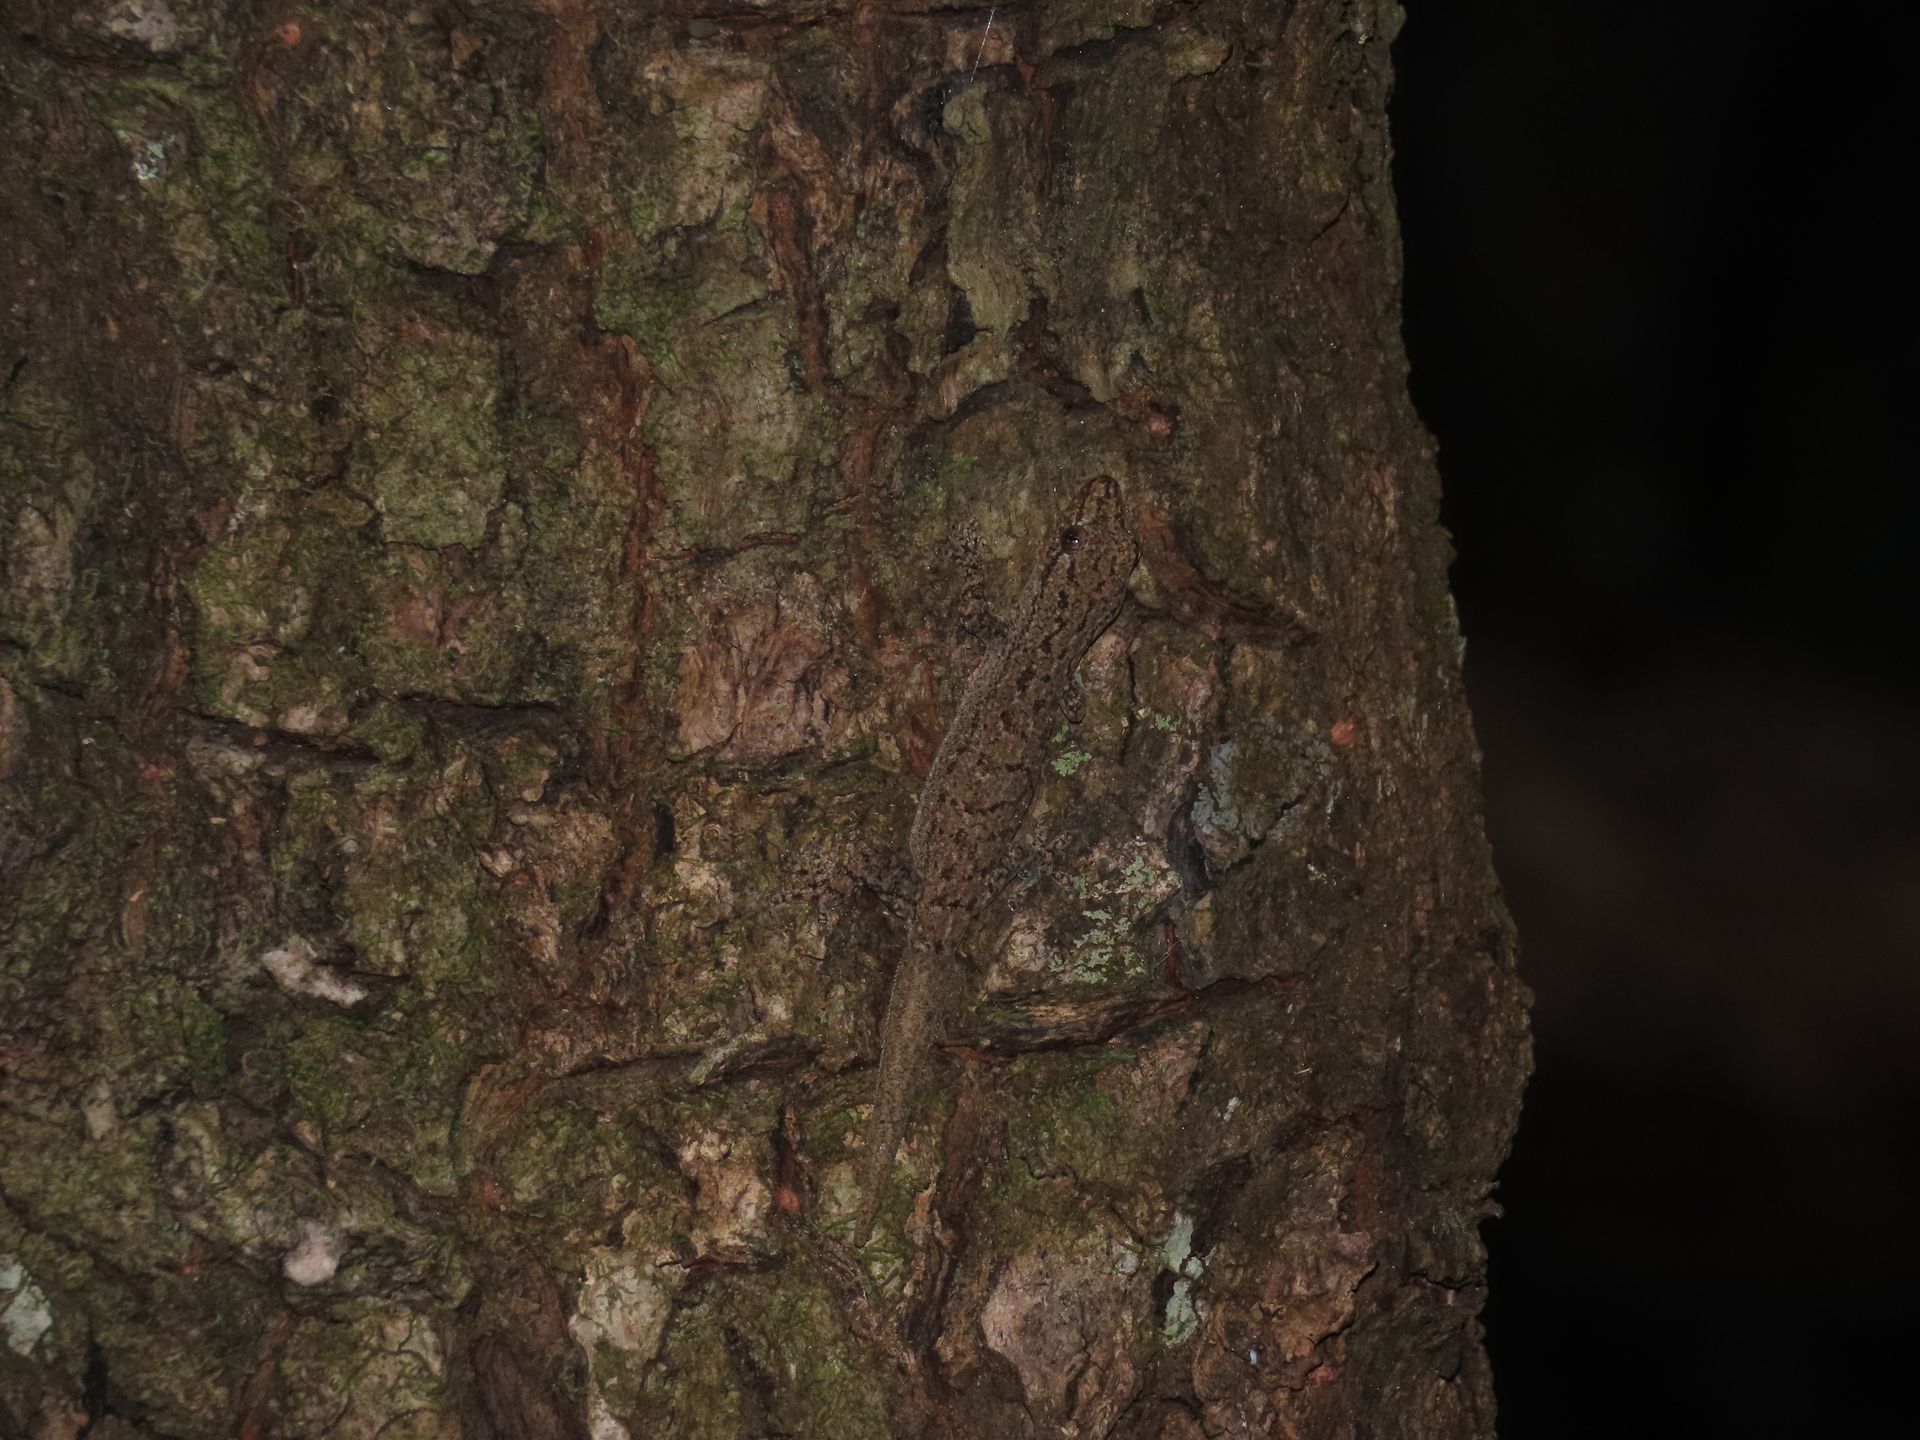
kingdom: Animalia
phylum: Chordata
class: Squamata
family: Gekkonidae
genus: Hemidactylus
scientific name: Hemidactylus frenatus
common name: Common house gecko
